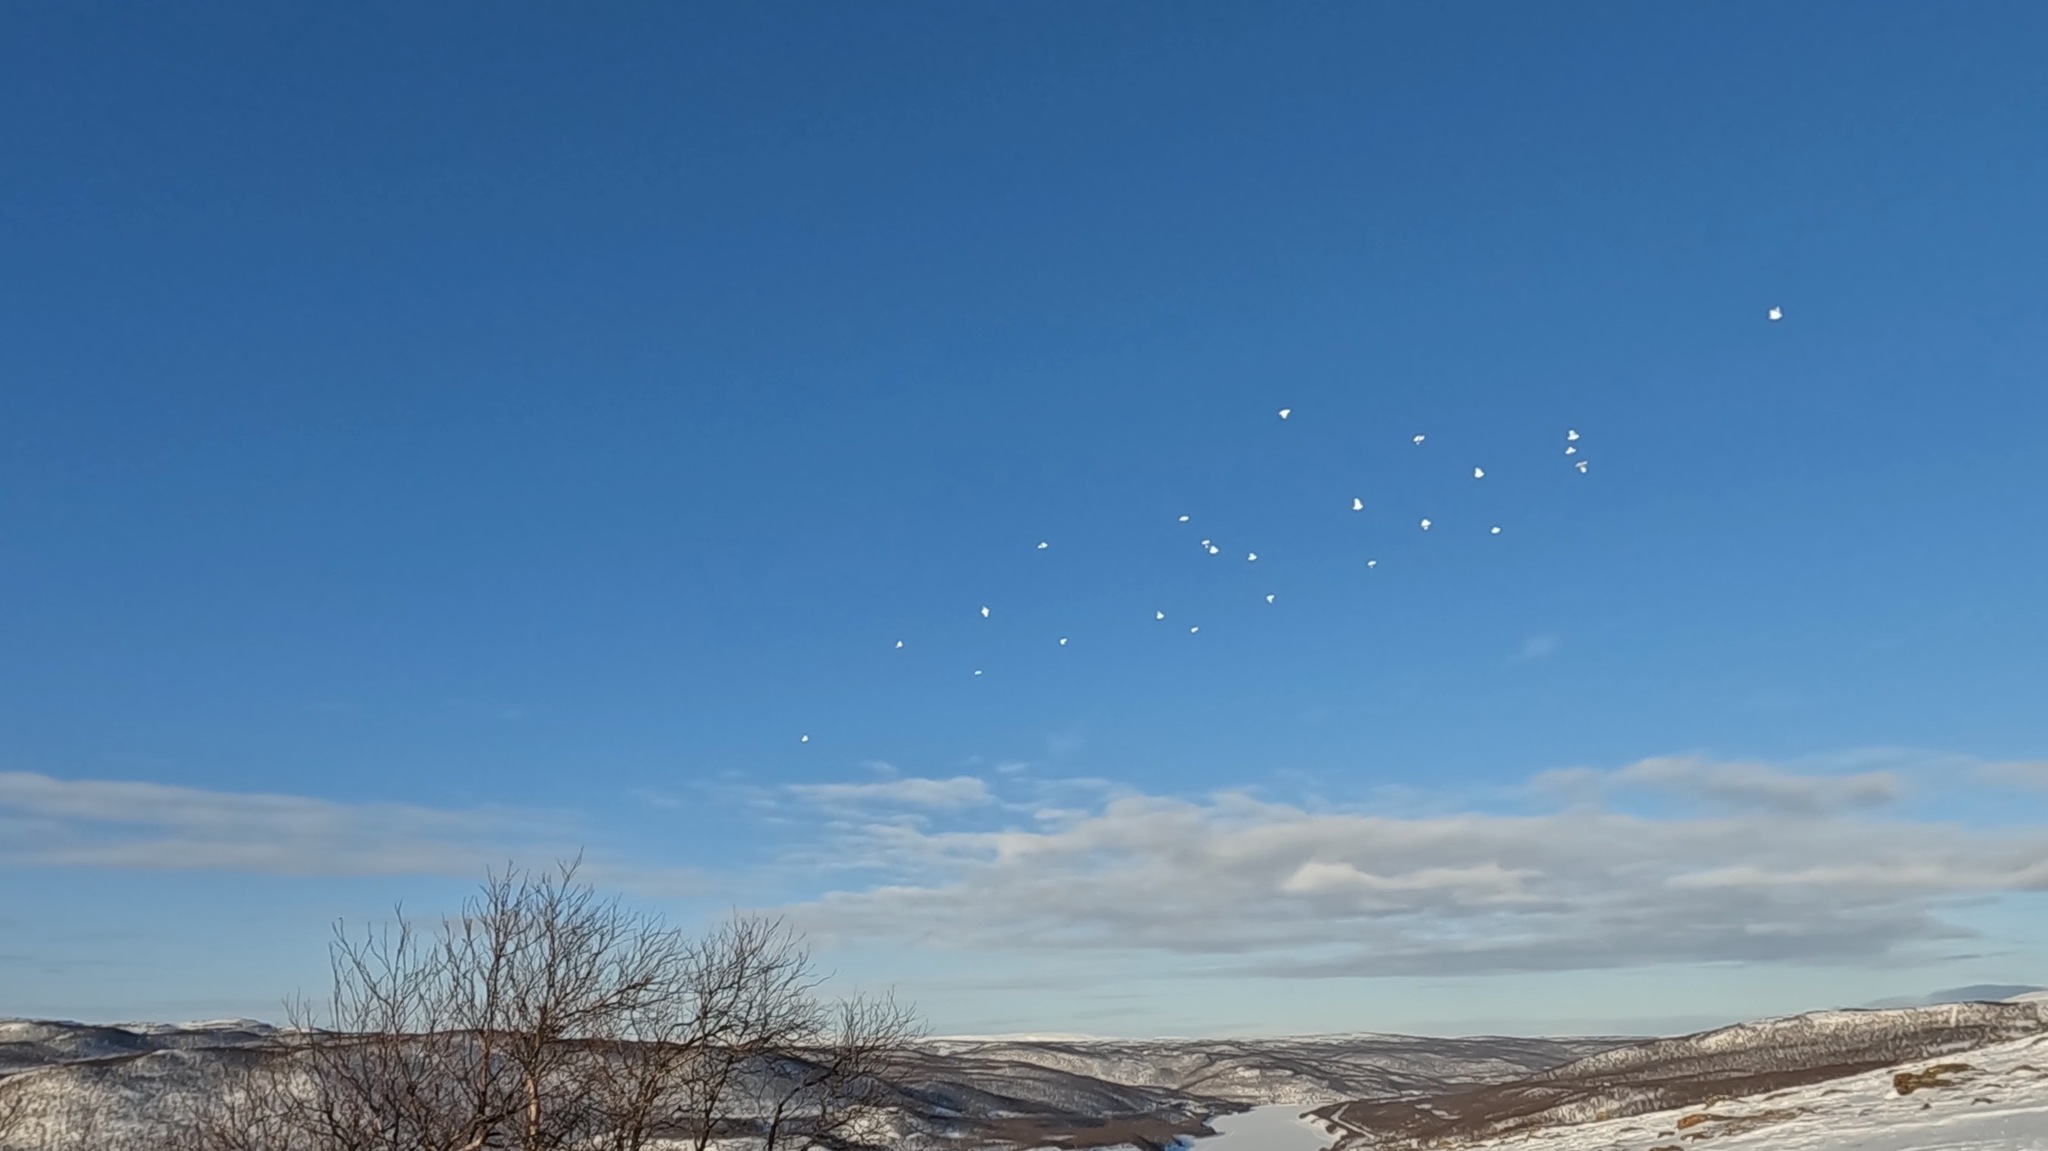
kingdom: Animalia
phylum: Chordata
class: Aves
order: Galliformes
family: Phasianidae
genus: Lagopus
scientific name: Lagopus lagopus
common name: Willow ptarmigan
